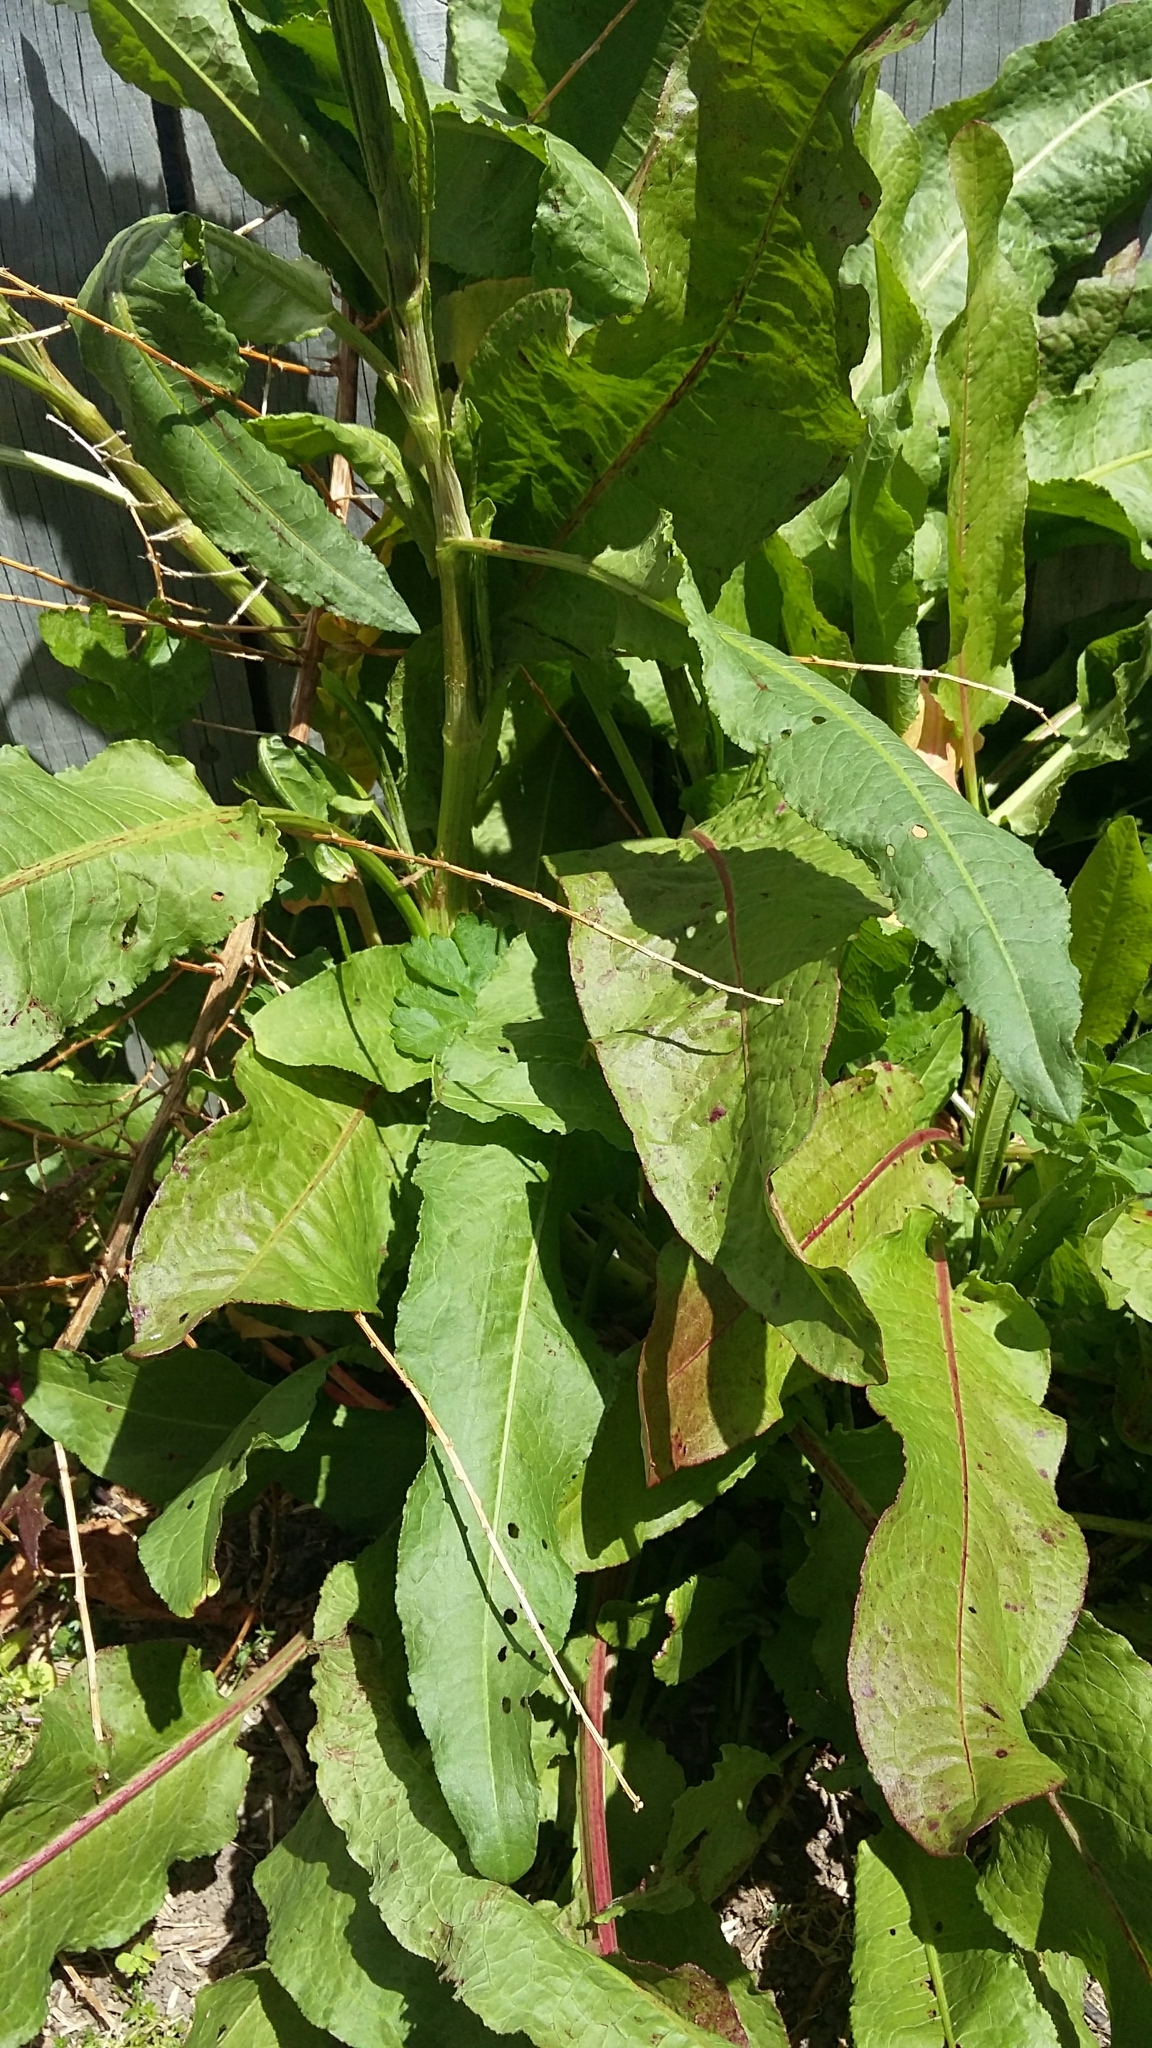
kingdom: Plantae
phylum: Tracheophyta
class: Magnoliopsida
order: Caryophyllales
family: Polygonaceae
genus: Rumex
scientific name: Rumex obtusifolius
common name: Bitter dock
